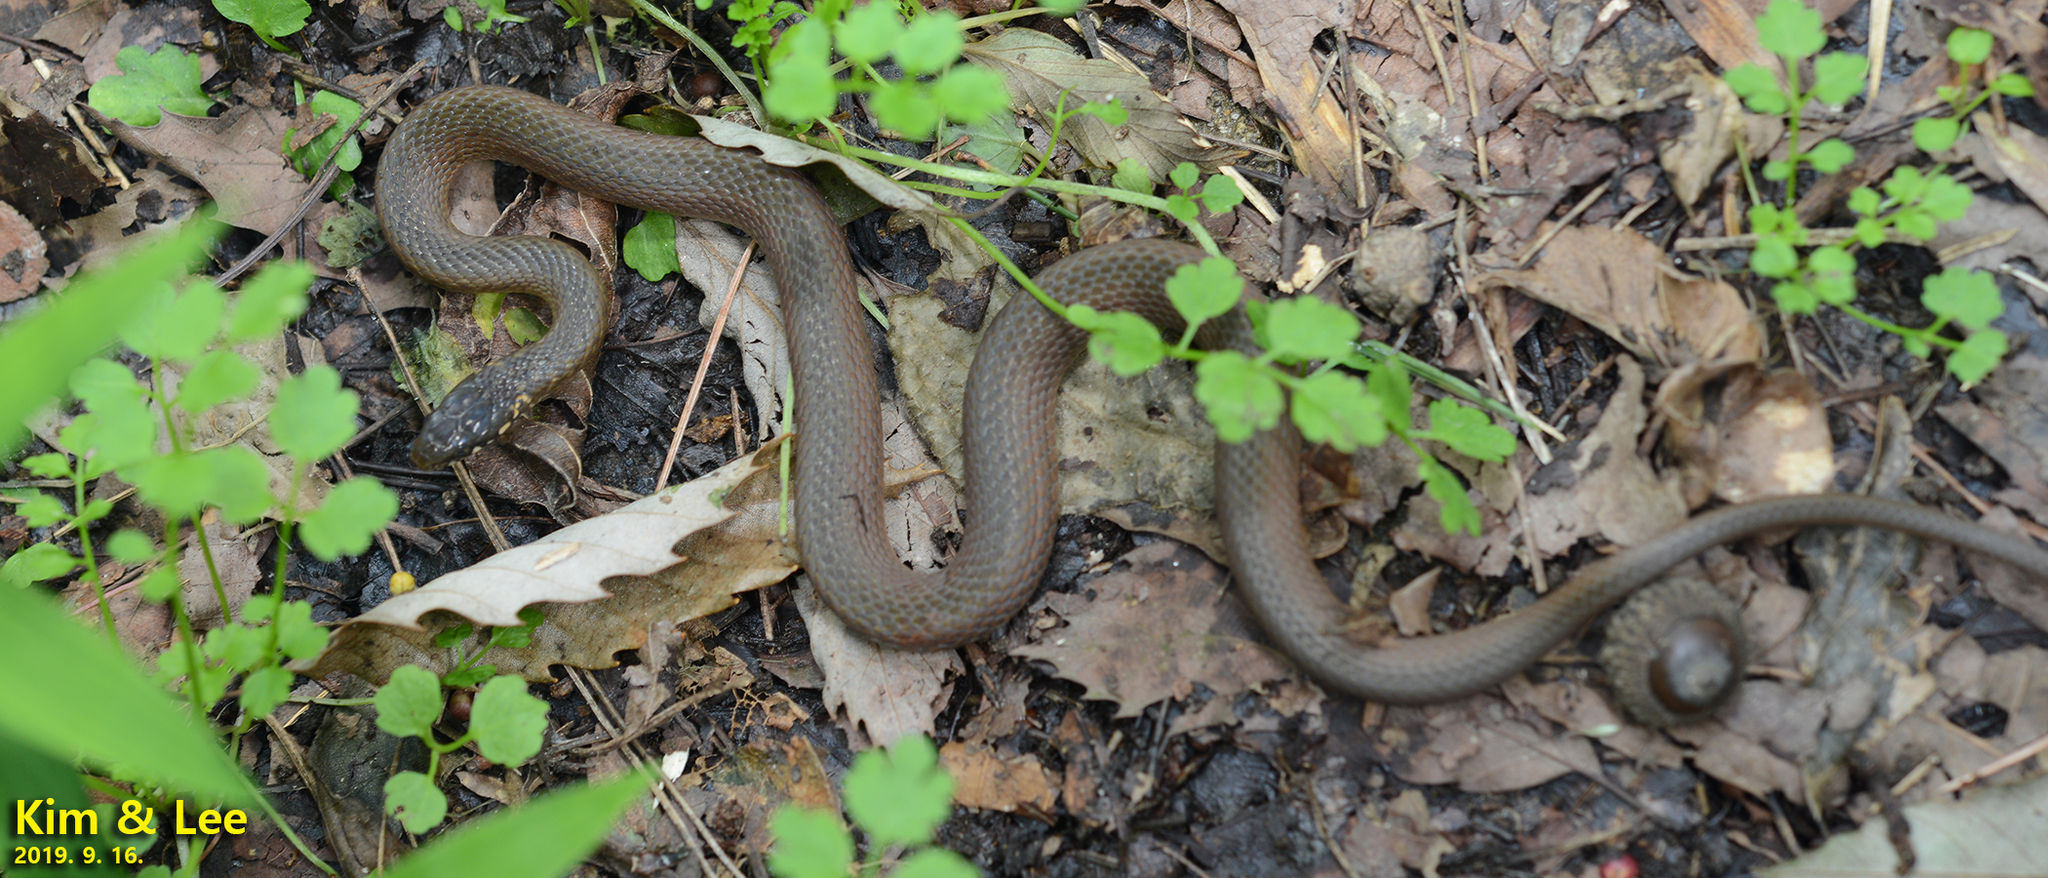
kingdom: Animalia
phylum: Chordata
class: Squamata
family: Colubridae
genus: Hebius
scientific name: Hebius vibakari
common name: Japanese keelback
